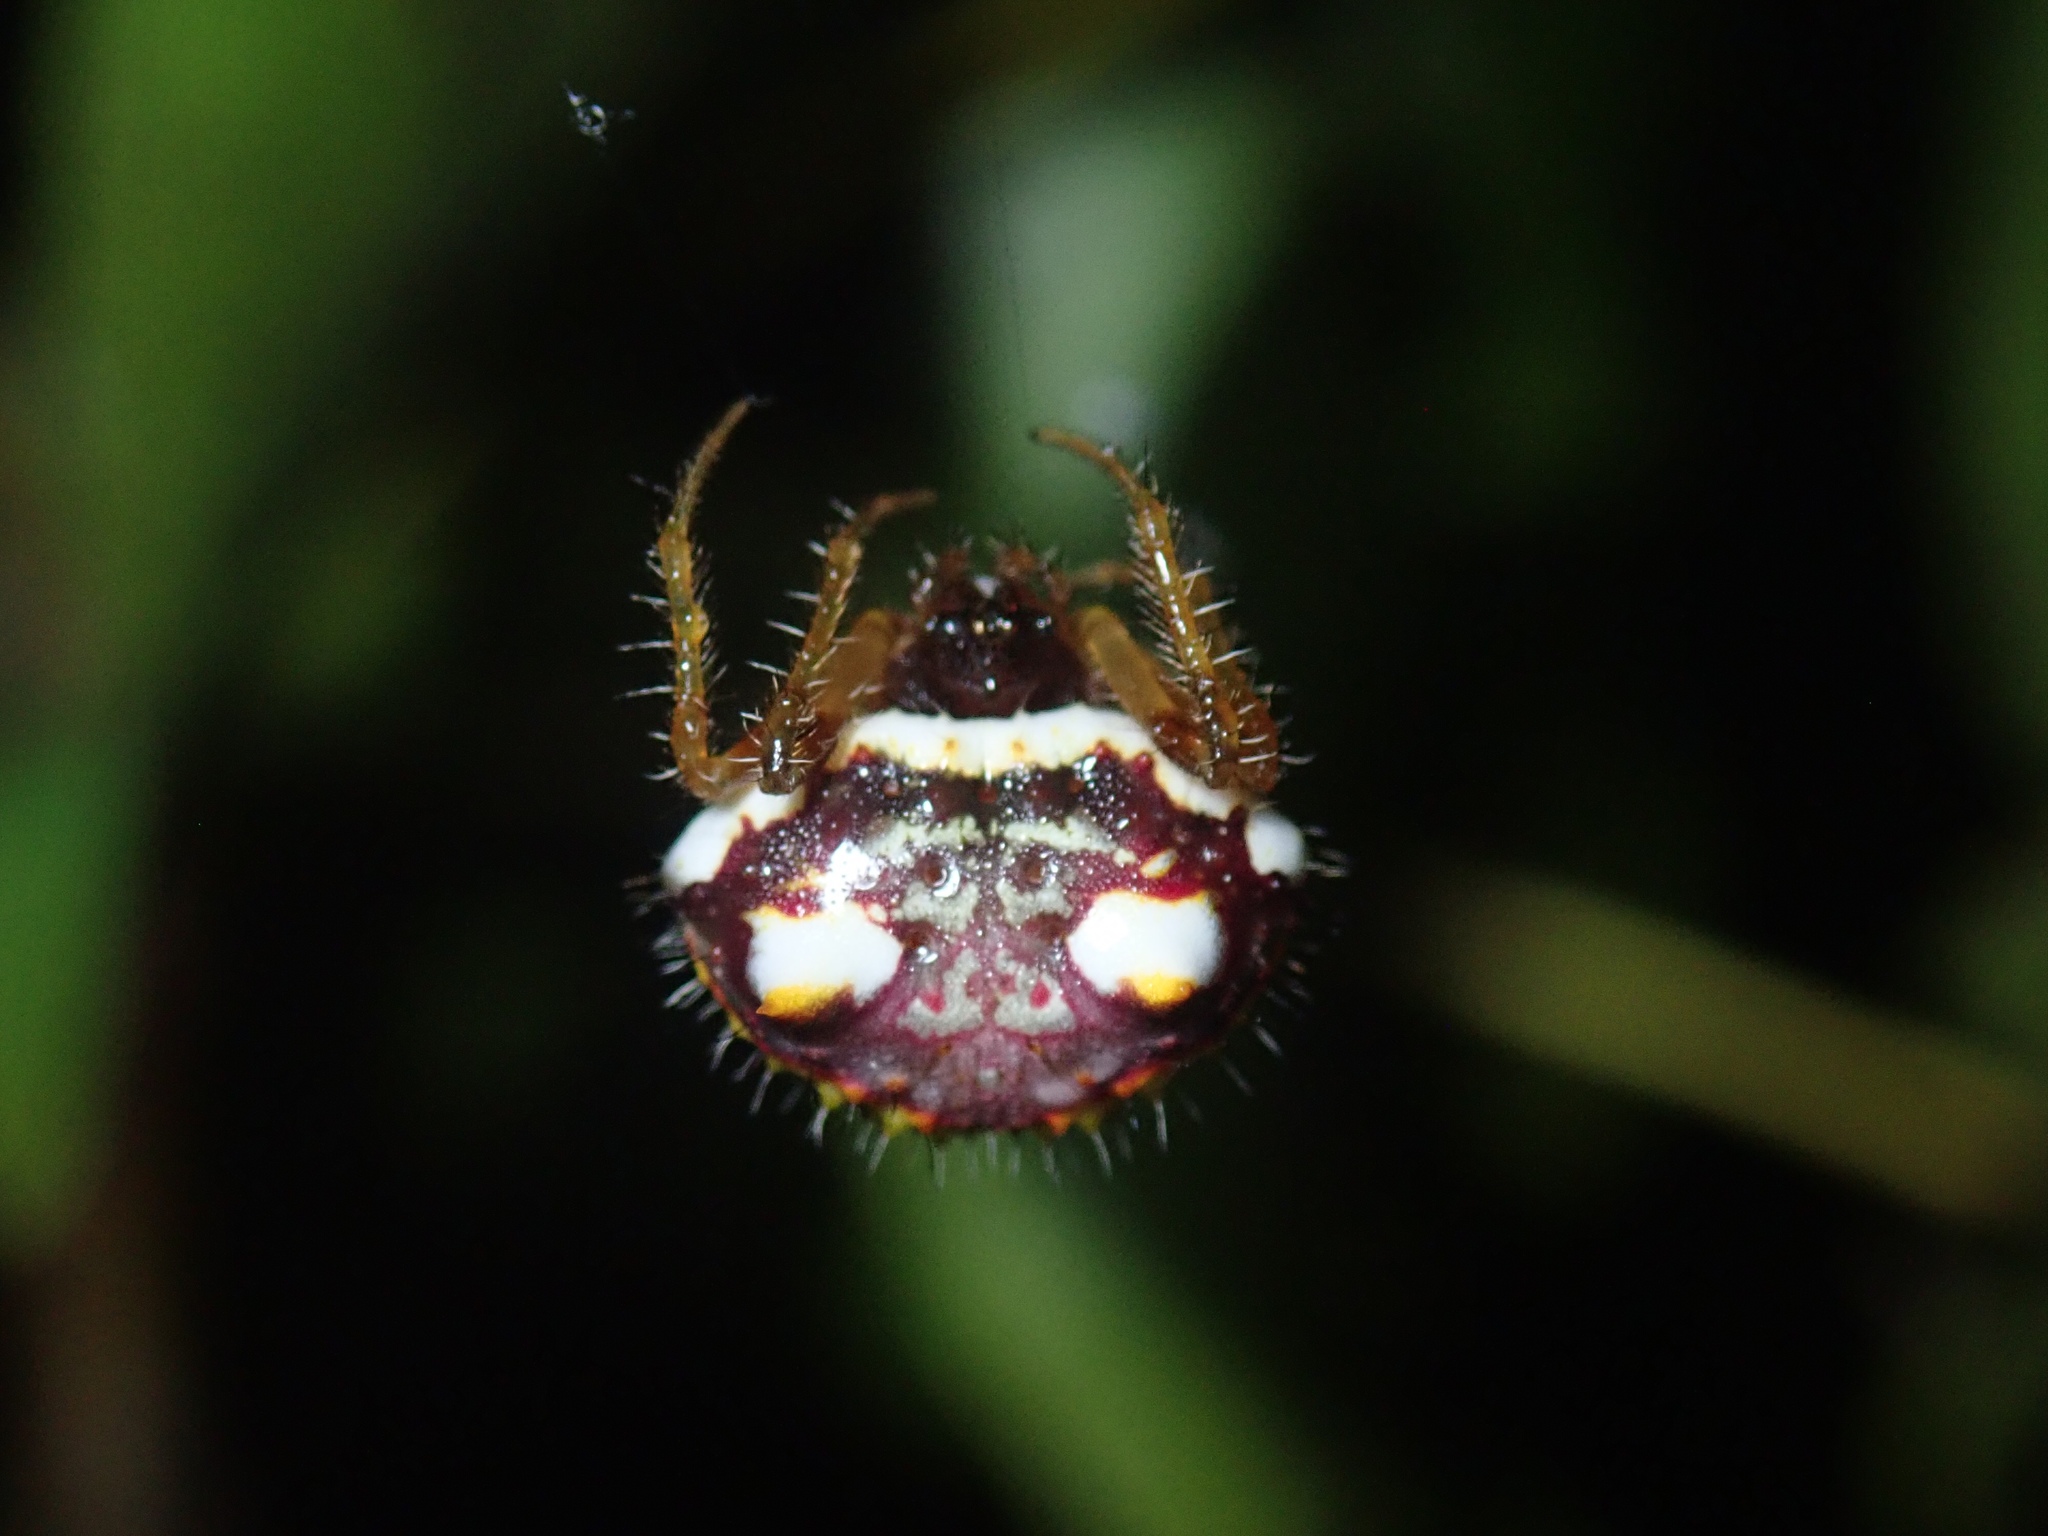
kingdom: Animalia
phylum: Arthropoda
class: Arachnida
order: Araneae
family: Araneidae
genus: Poecilopachys
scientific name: Poecilopachys australasia
